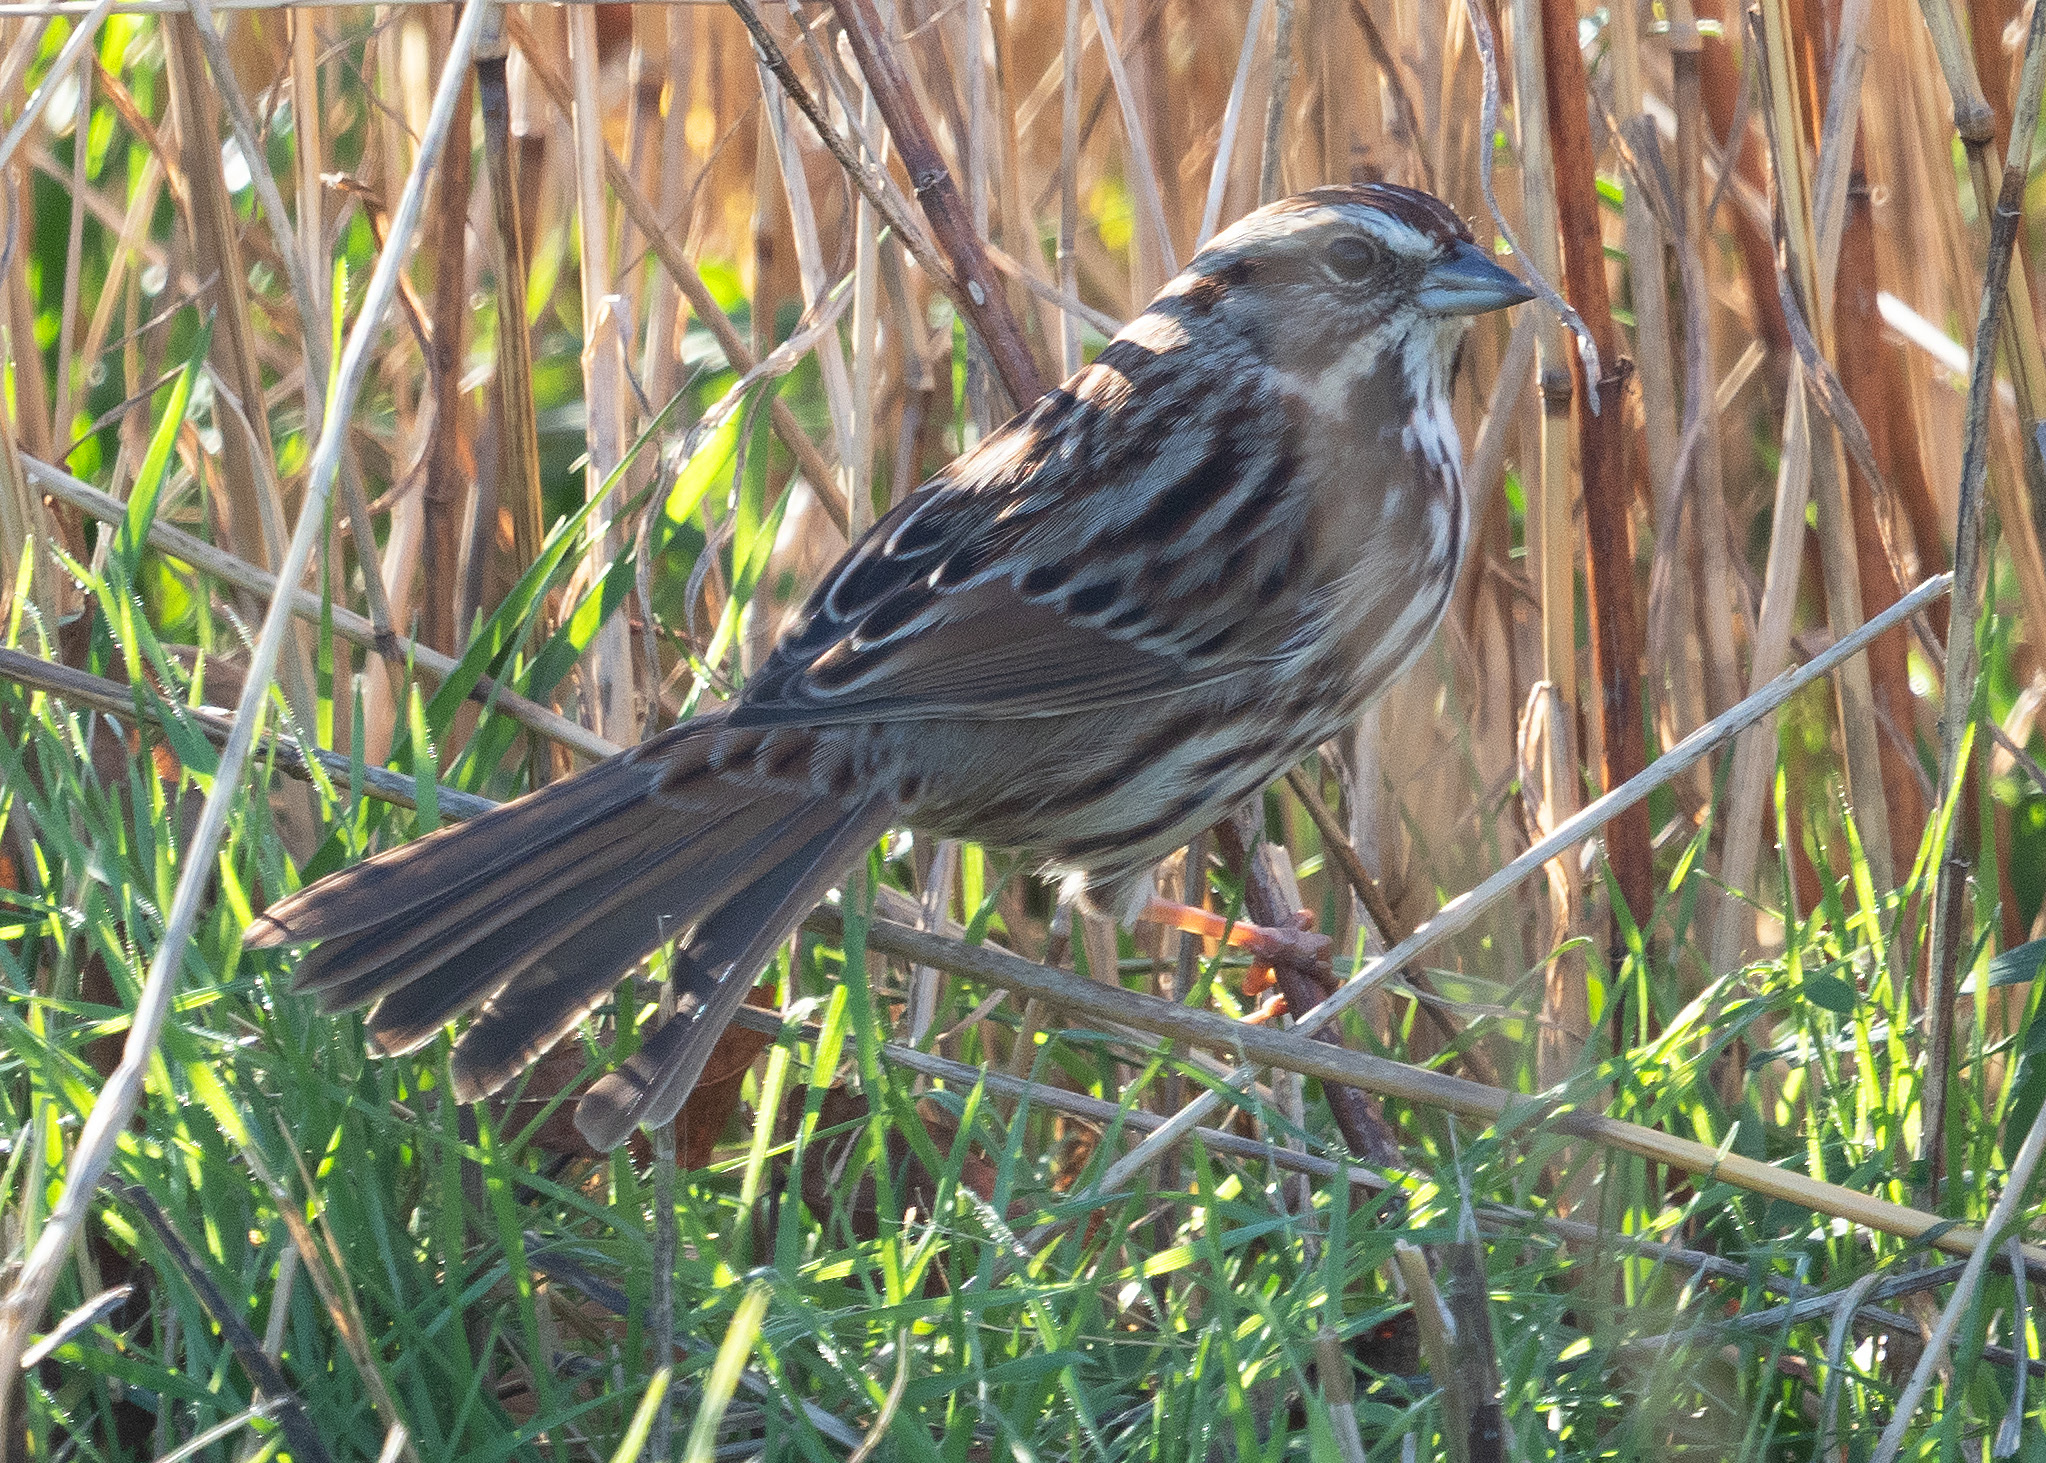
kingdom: Animalia
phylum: Chordata
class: Aves
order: Passeriformes
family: Passerellidae
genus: Melospiza
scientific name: Melospiza melodia
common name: Song sparrow
